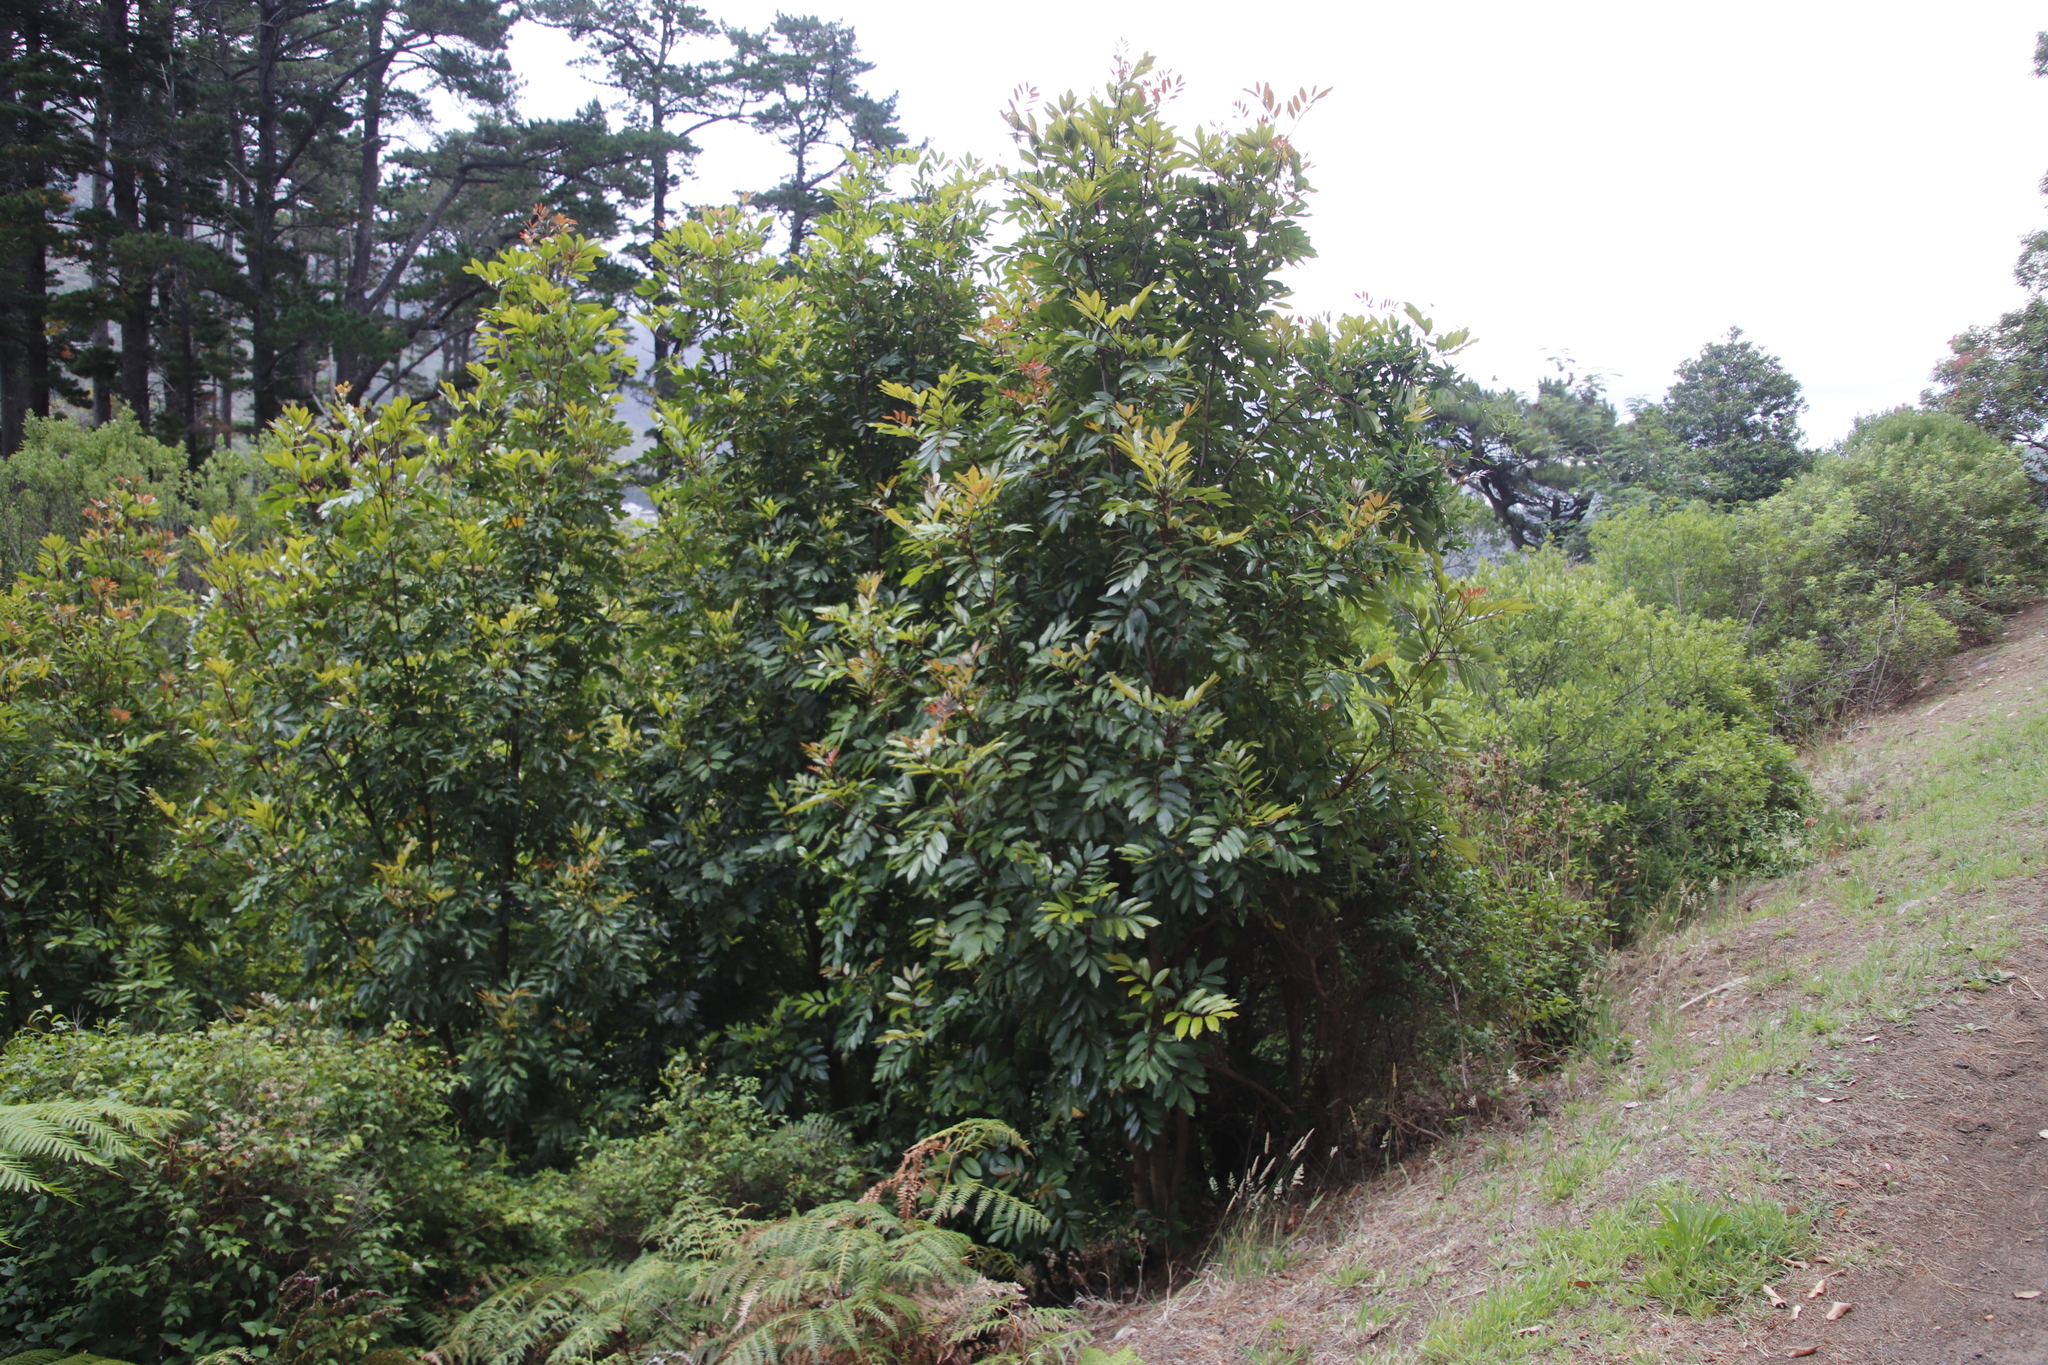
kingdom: Plantae
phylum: Tracheophyta
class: Magnoliopsida
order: Oxalidales
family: Cunoniaceae
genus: Cunonia
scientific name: Cunonia capensis
